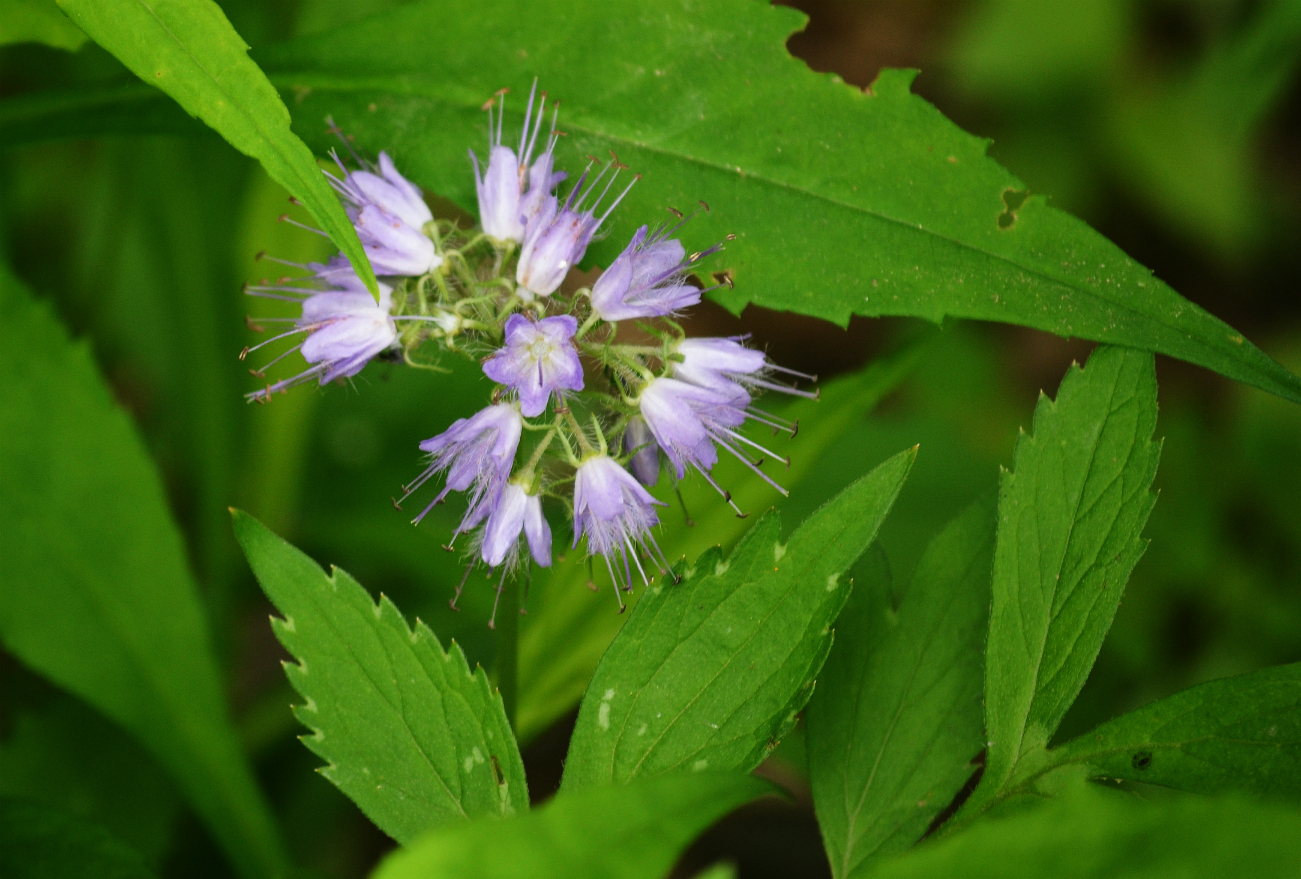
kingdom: Plantae
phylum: Tracheophyta
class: Magnoliopsida
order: Boraginales
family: Hydrophyllaceae
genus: Hydrophyllum
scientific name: Hydrophyllum virginianum
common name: Virginia waterleaf
